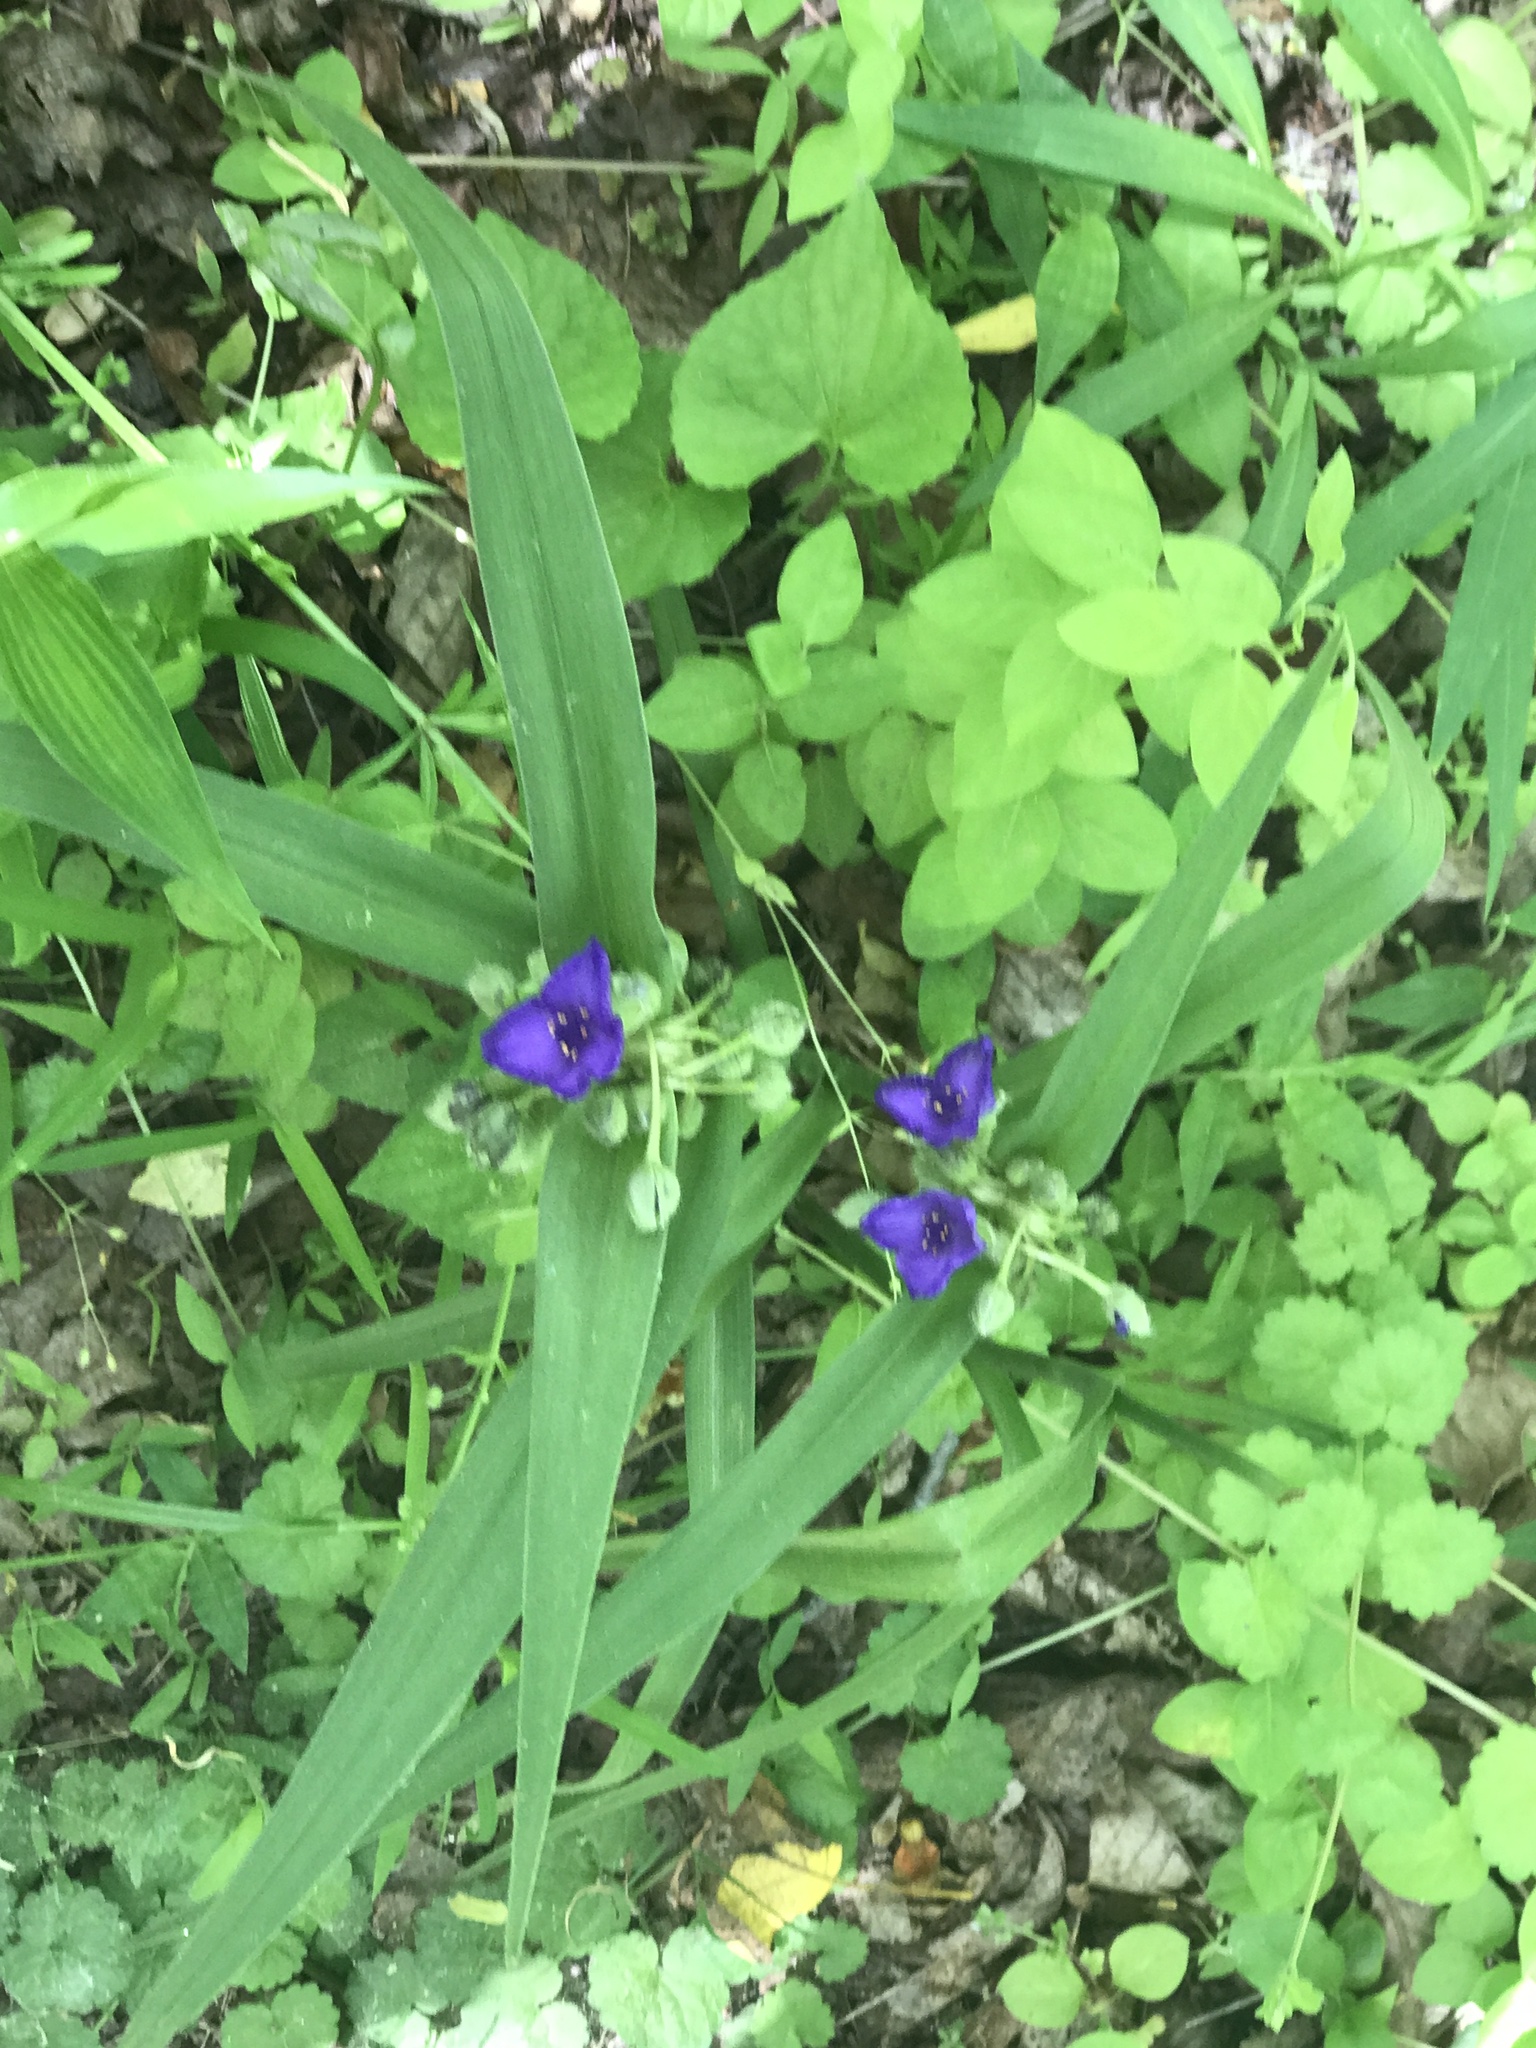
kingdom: Plantae
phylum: Tracheophyta
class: Liliopsida
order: Commelinales
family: Commelinaceae
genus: Tradescantia
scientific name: Tradescantia virginiana
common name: Spiderwort
